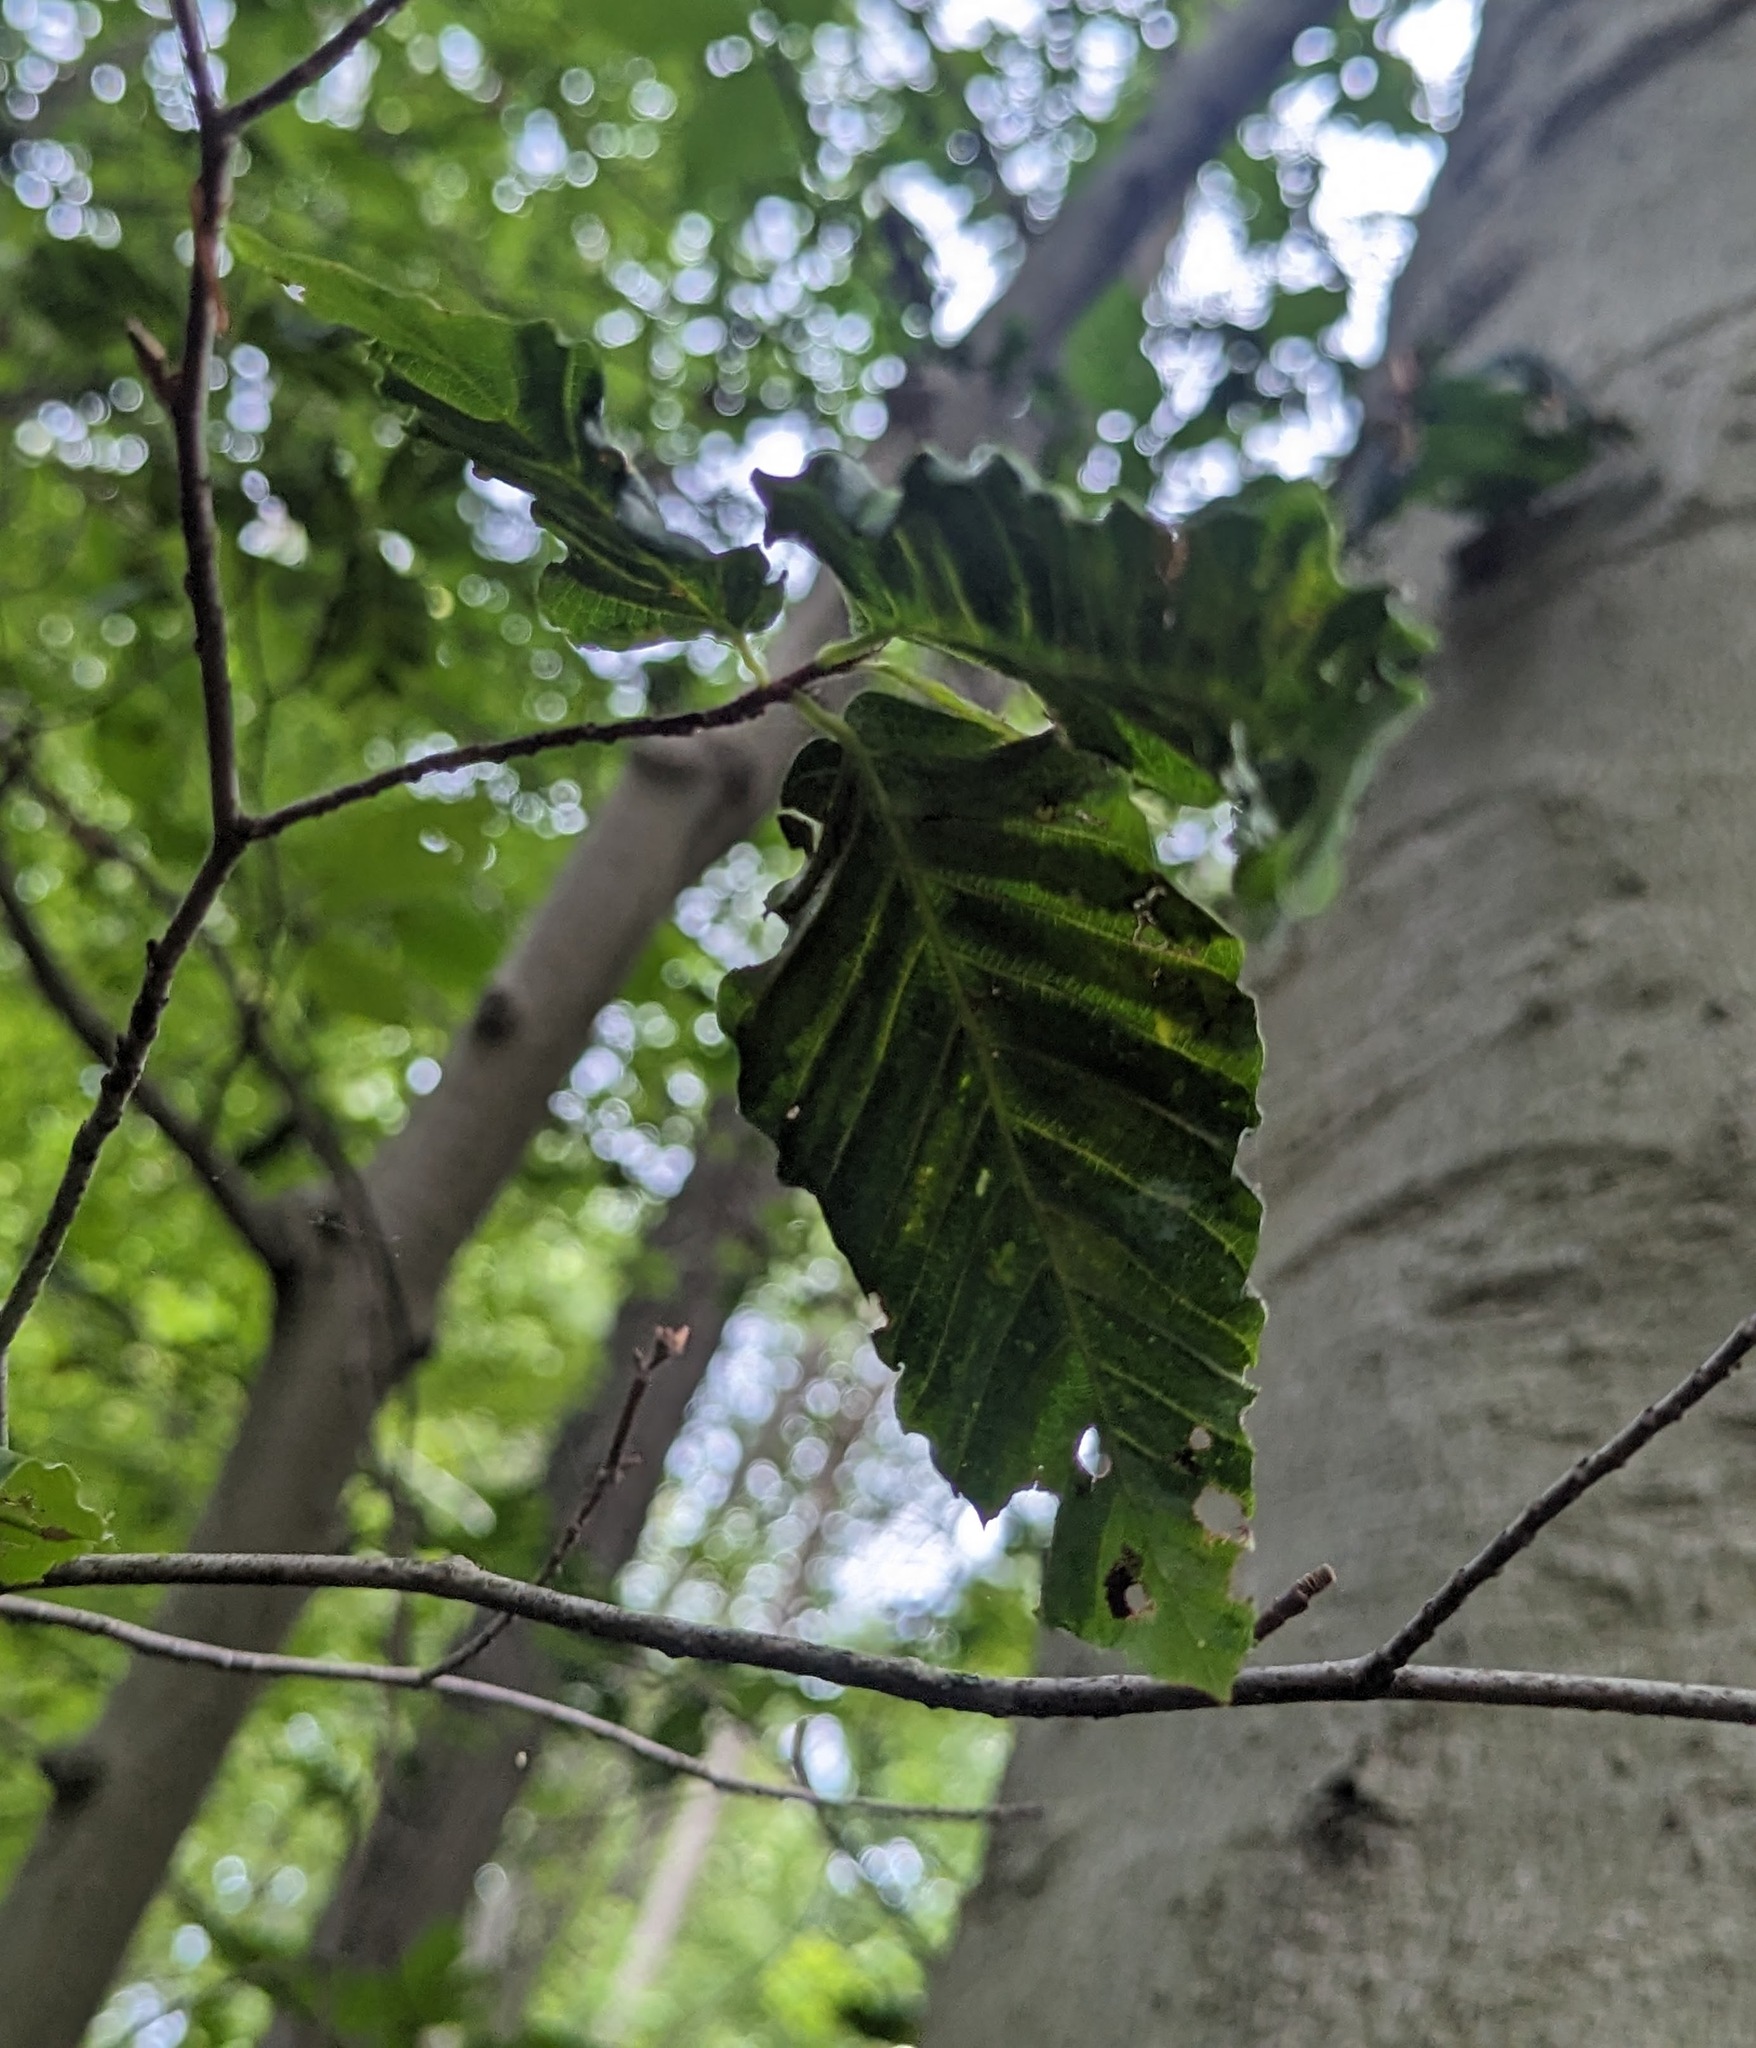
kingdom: Plantae
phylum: Tracheophyta
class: Magnoliopsida
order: Fagales
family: Fagaceae
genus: Fagus
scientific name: Fagus grandifolia
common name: American beech
